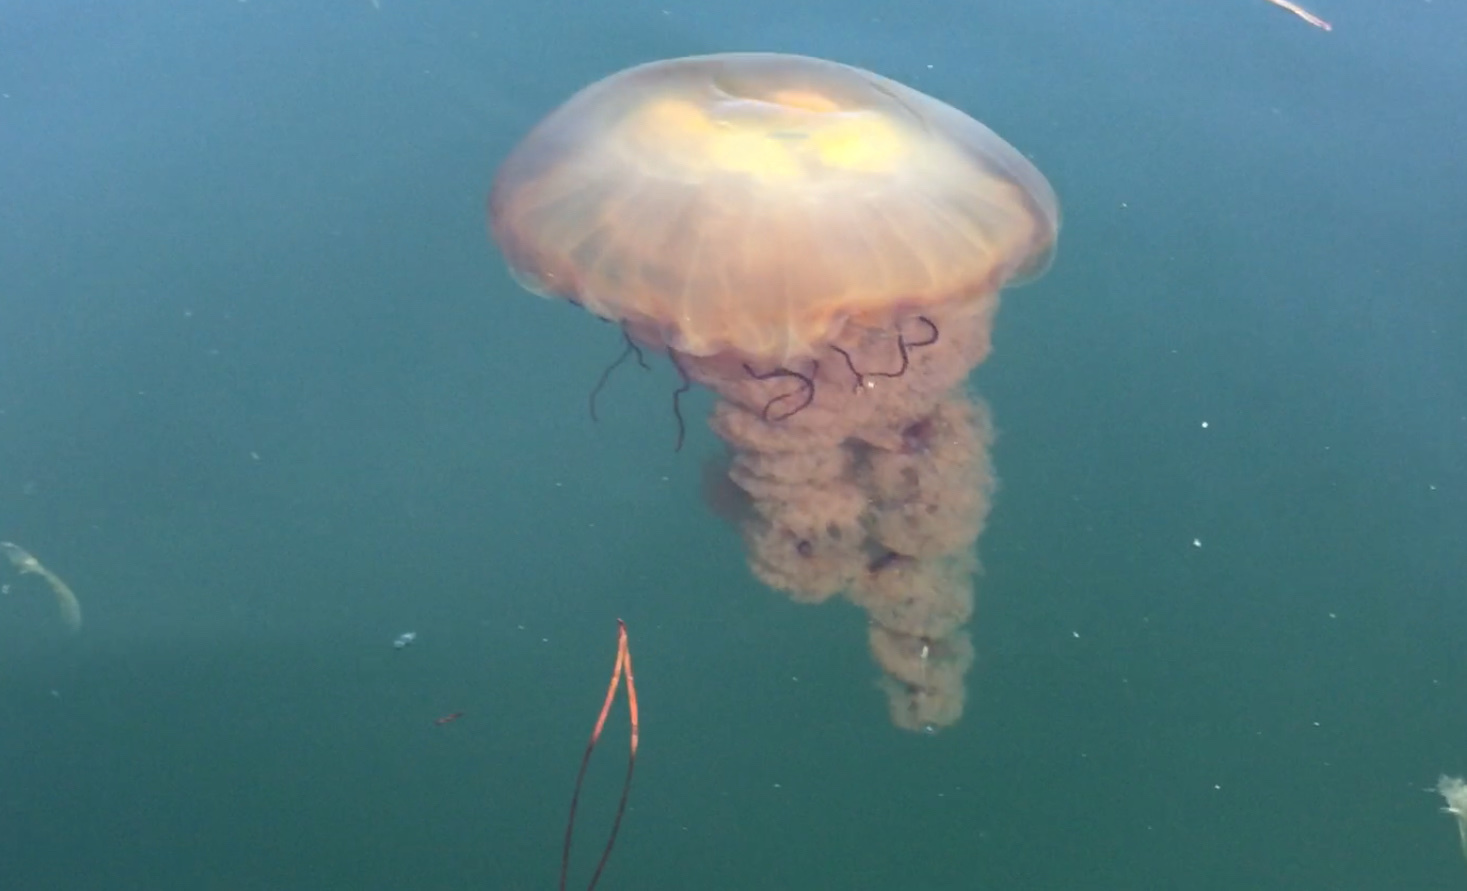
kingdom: Animalia
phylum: Cnidaria
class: Scyphozoa
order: Semaeostomeae
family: Pelagiidae
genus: Chrysaora
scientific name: Chrysaora fuscescens
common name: Sea nettle
